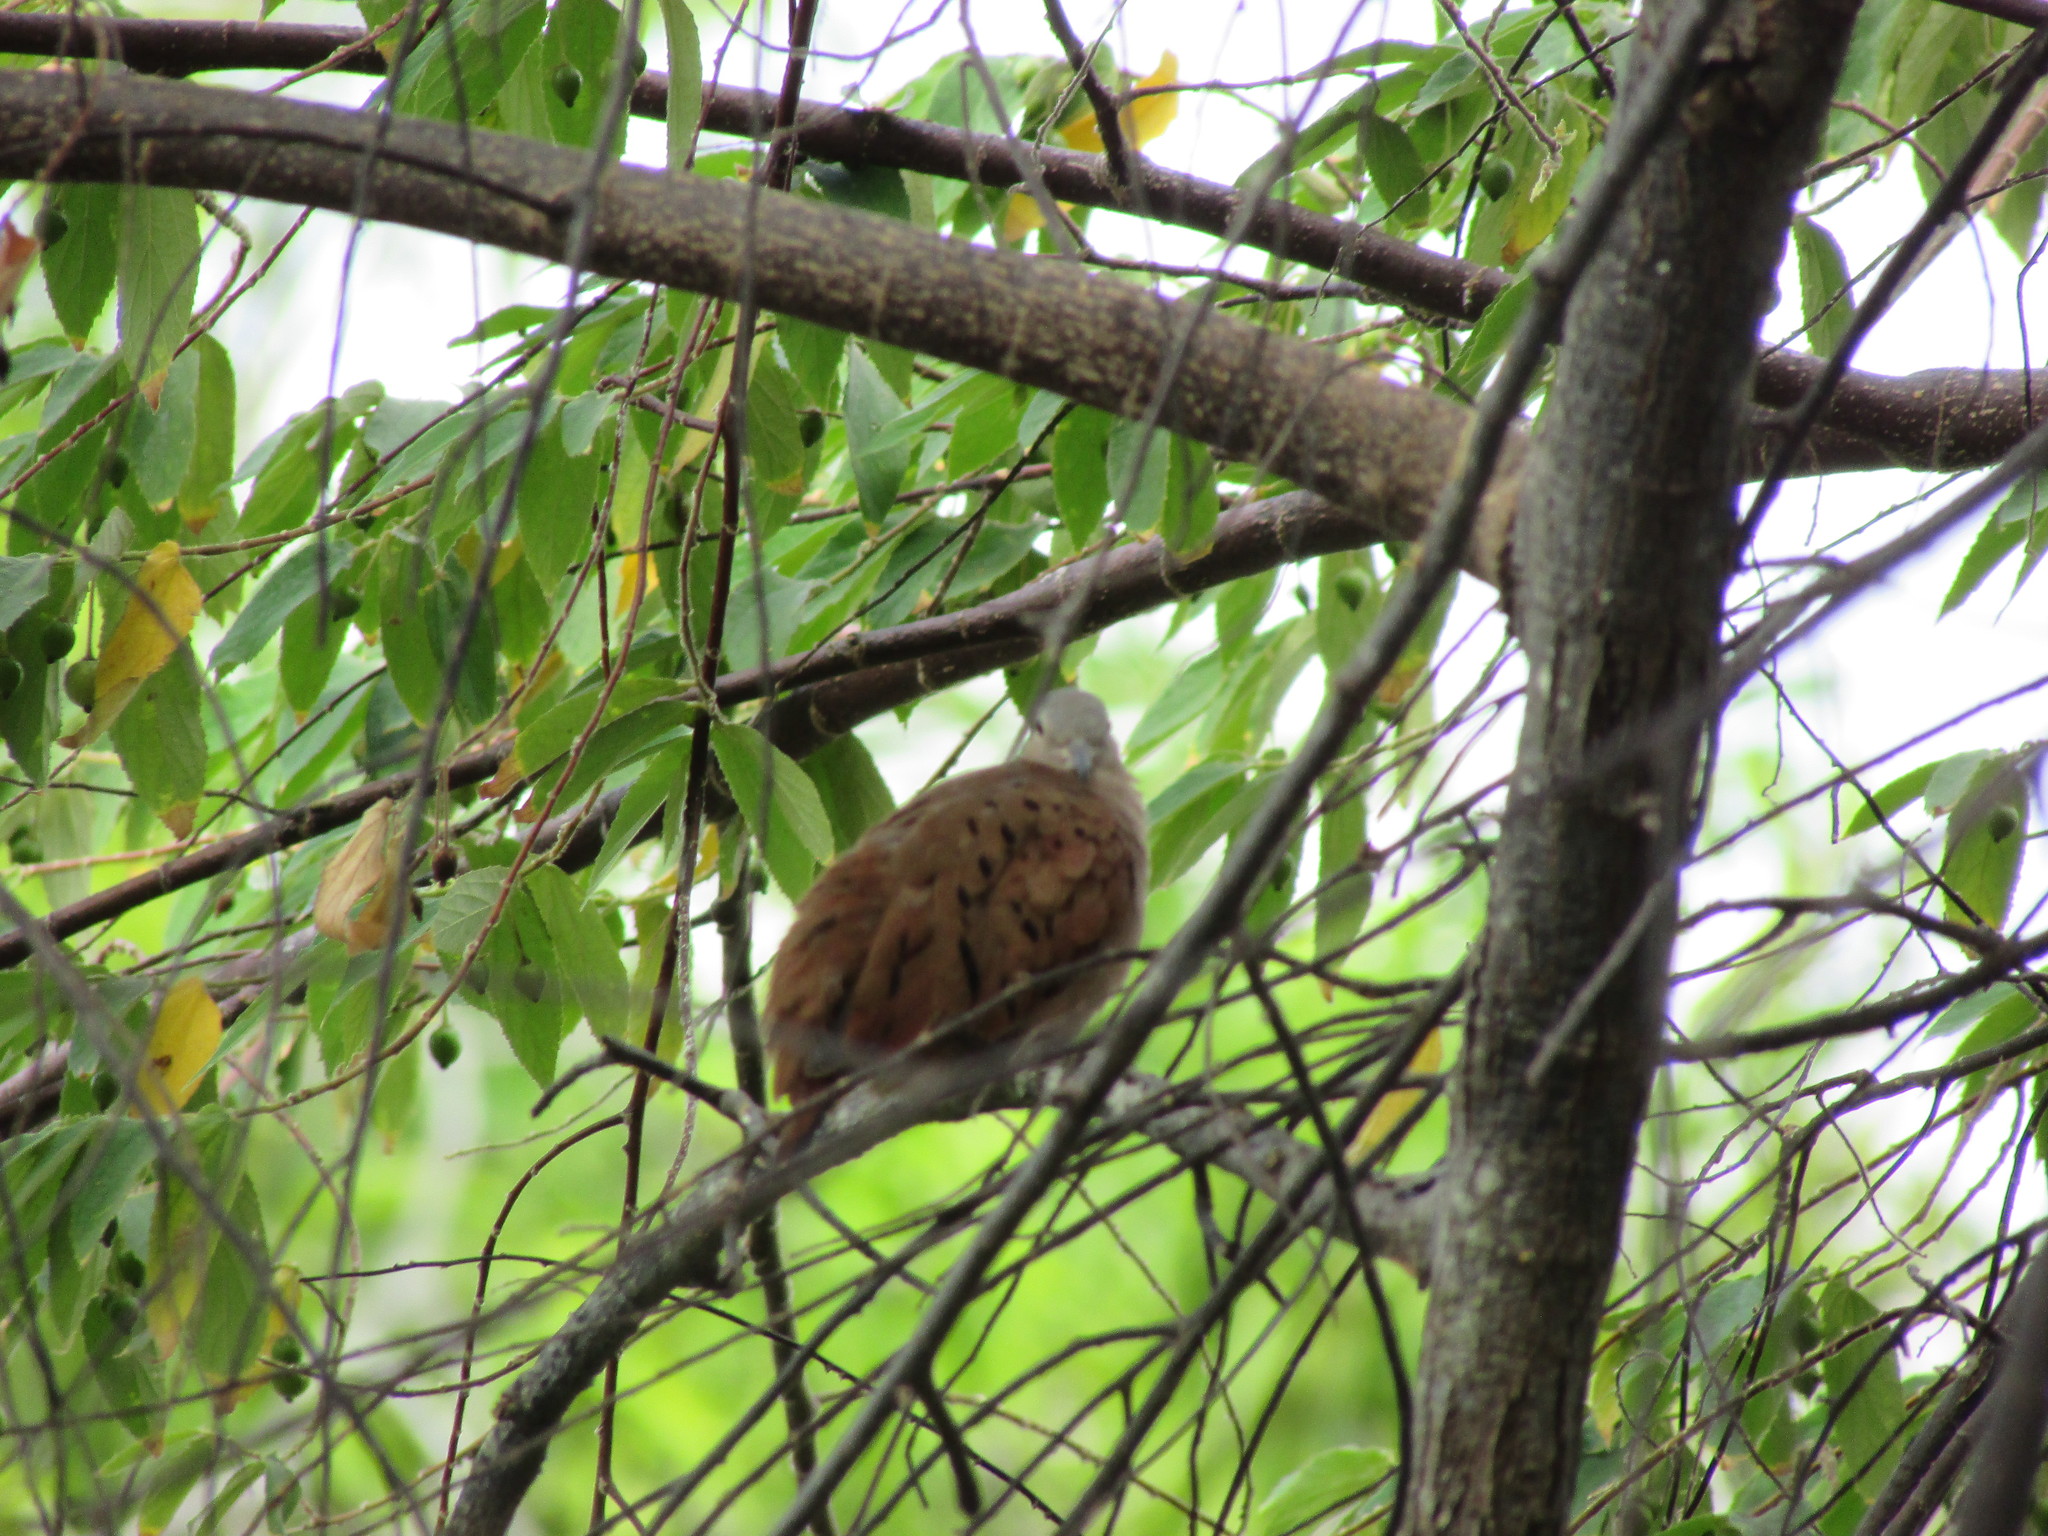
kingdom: Animalia
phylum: Chordata
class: Aves
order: Columbiformes
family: Columbidae
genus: Columbina
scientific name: Columbina talpacoti
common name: Ruddy ground dove
